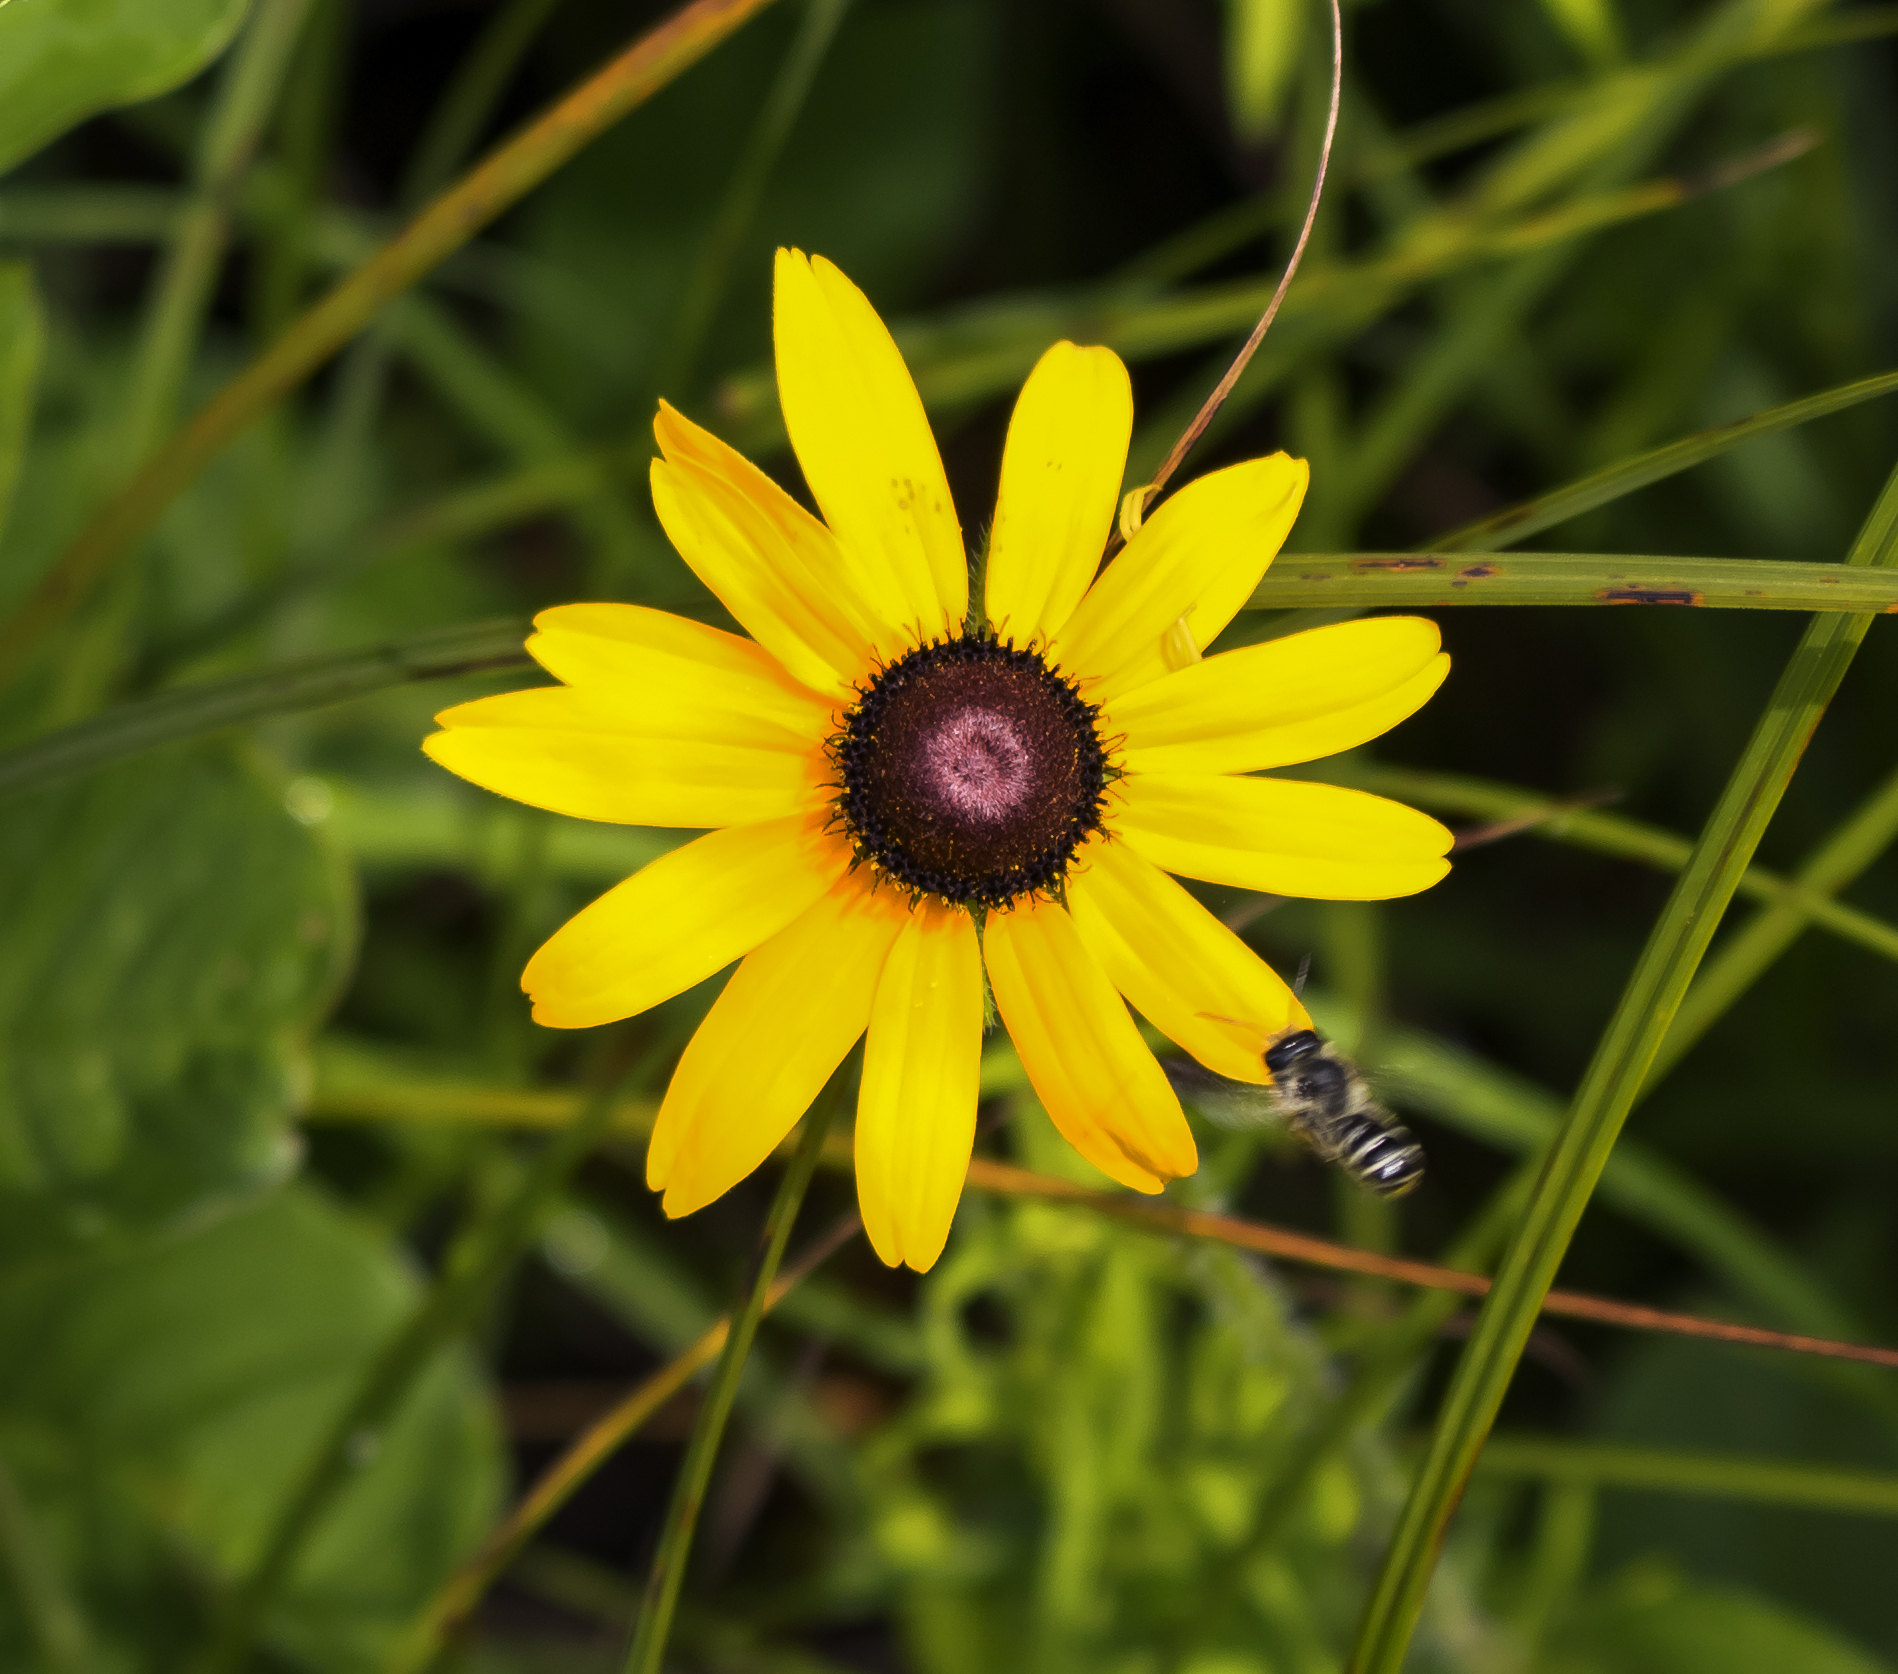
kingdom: Plantae
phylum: Tracheophyta
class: Magnoliopsida
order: Asterales
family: Asteraceae
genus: Rudbeckia
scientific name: Rudbeckia hirta
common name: Black-eyed-susan
